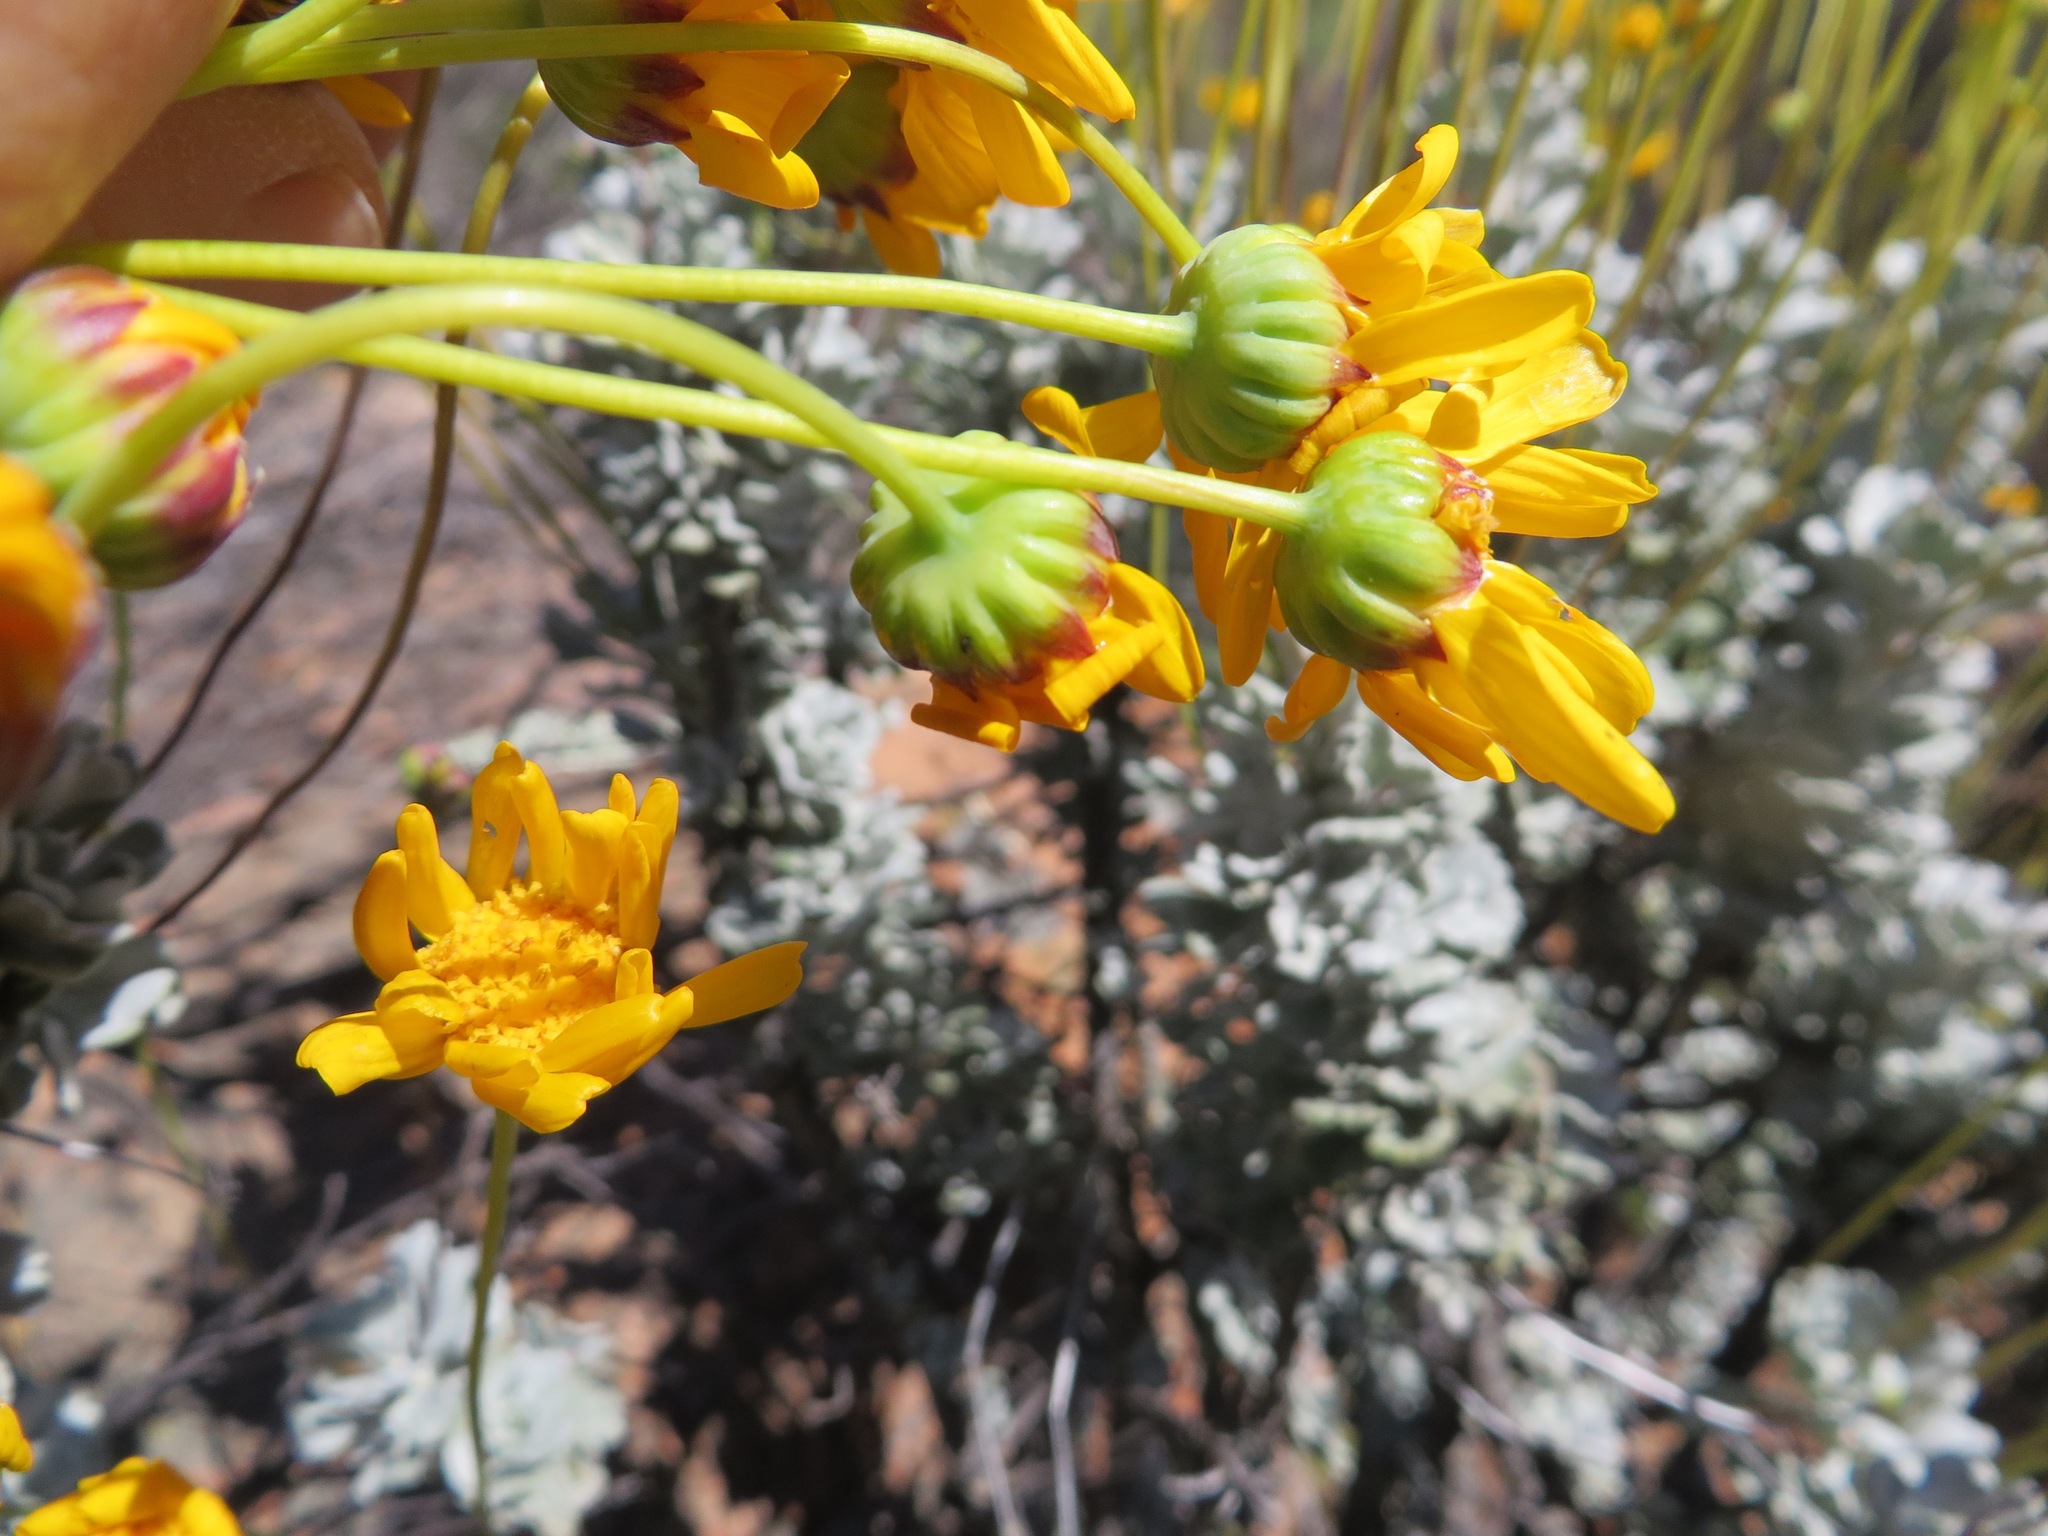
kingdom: Plantae
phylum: Tracheophyta
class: Magnoliopsida
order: Asterales
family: Asteraceae
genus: Euryops
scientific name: Euryops dregeanus
